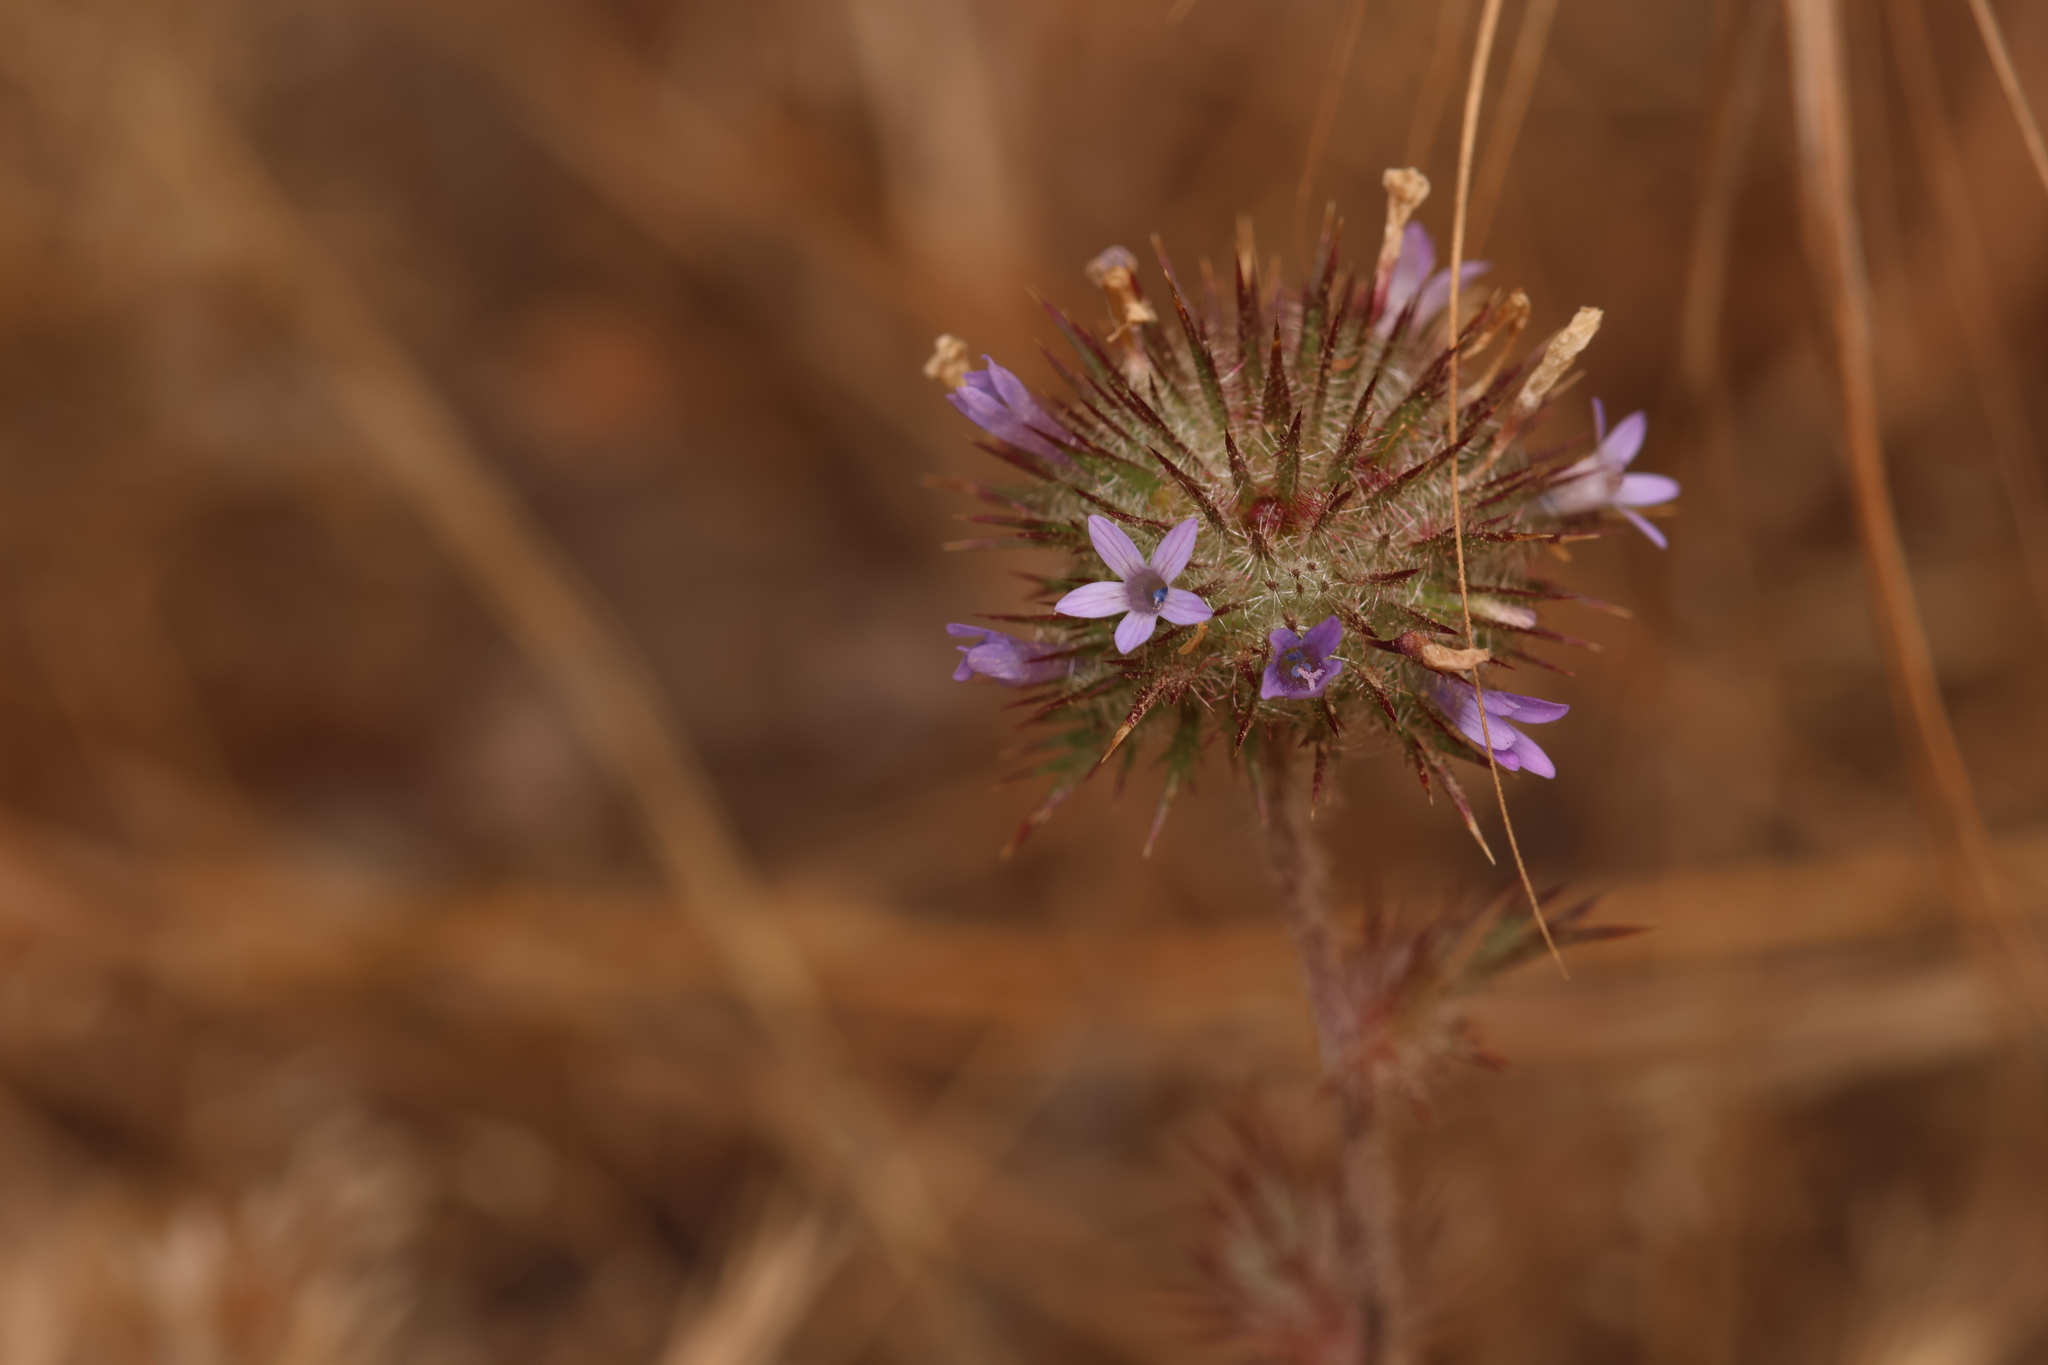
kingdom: Plantae
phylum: Tracheophyta
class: Magnoliopsida
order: Ericales
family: Polemoniaceae
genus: Navarretia
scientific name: Navarretia squarrosa
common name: Skunkweed
